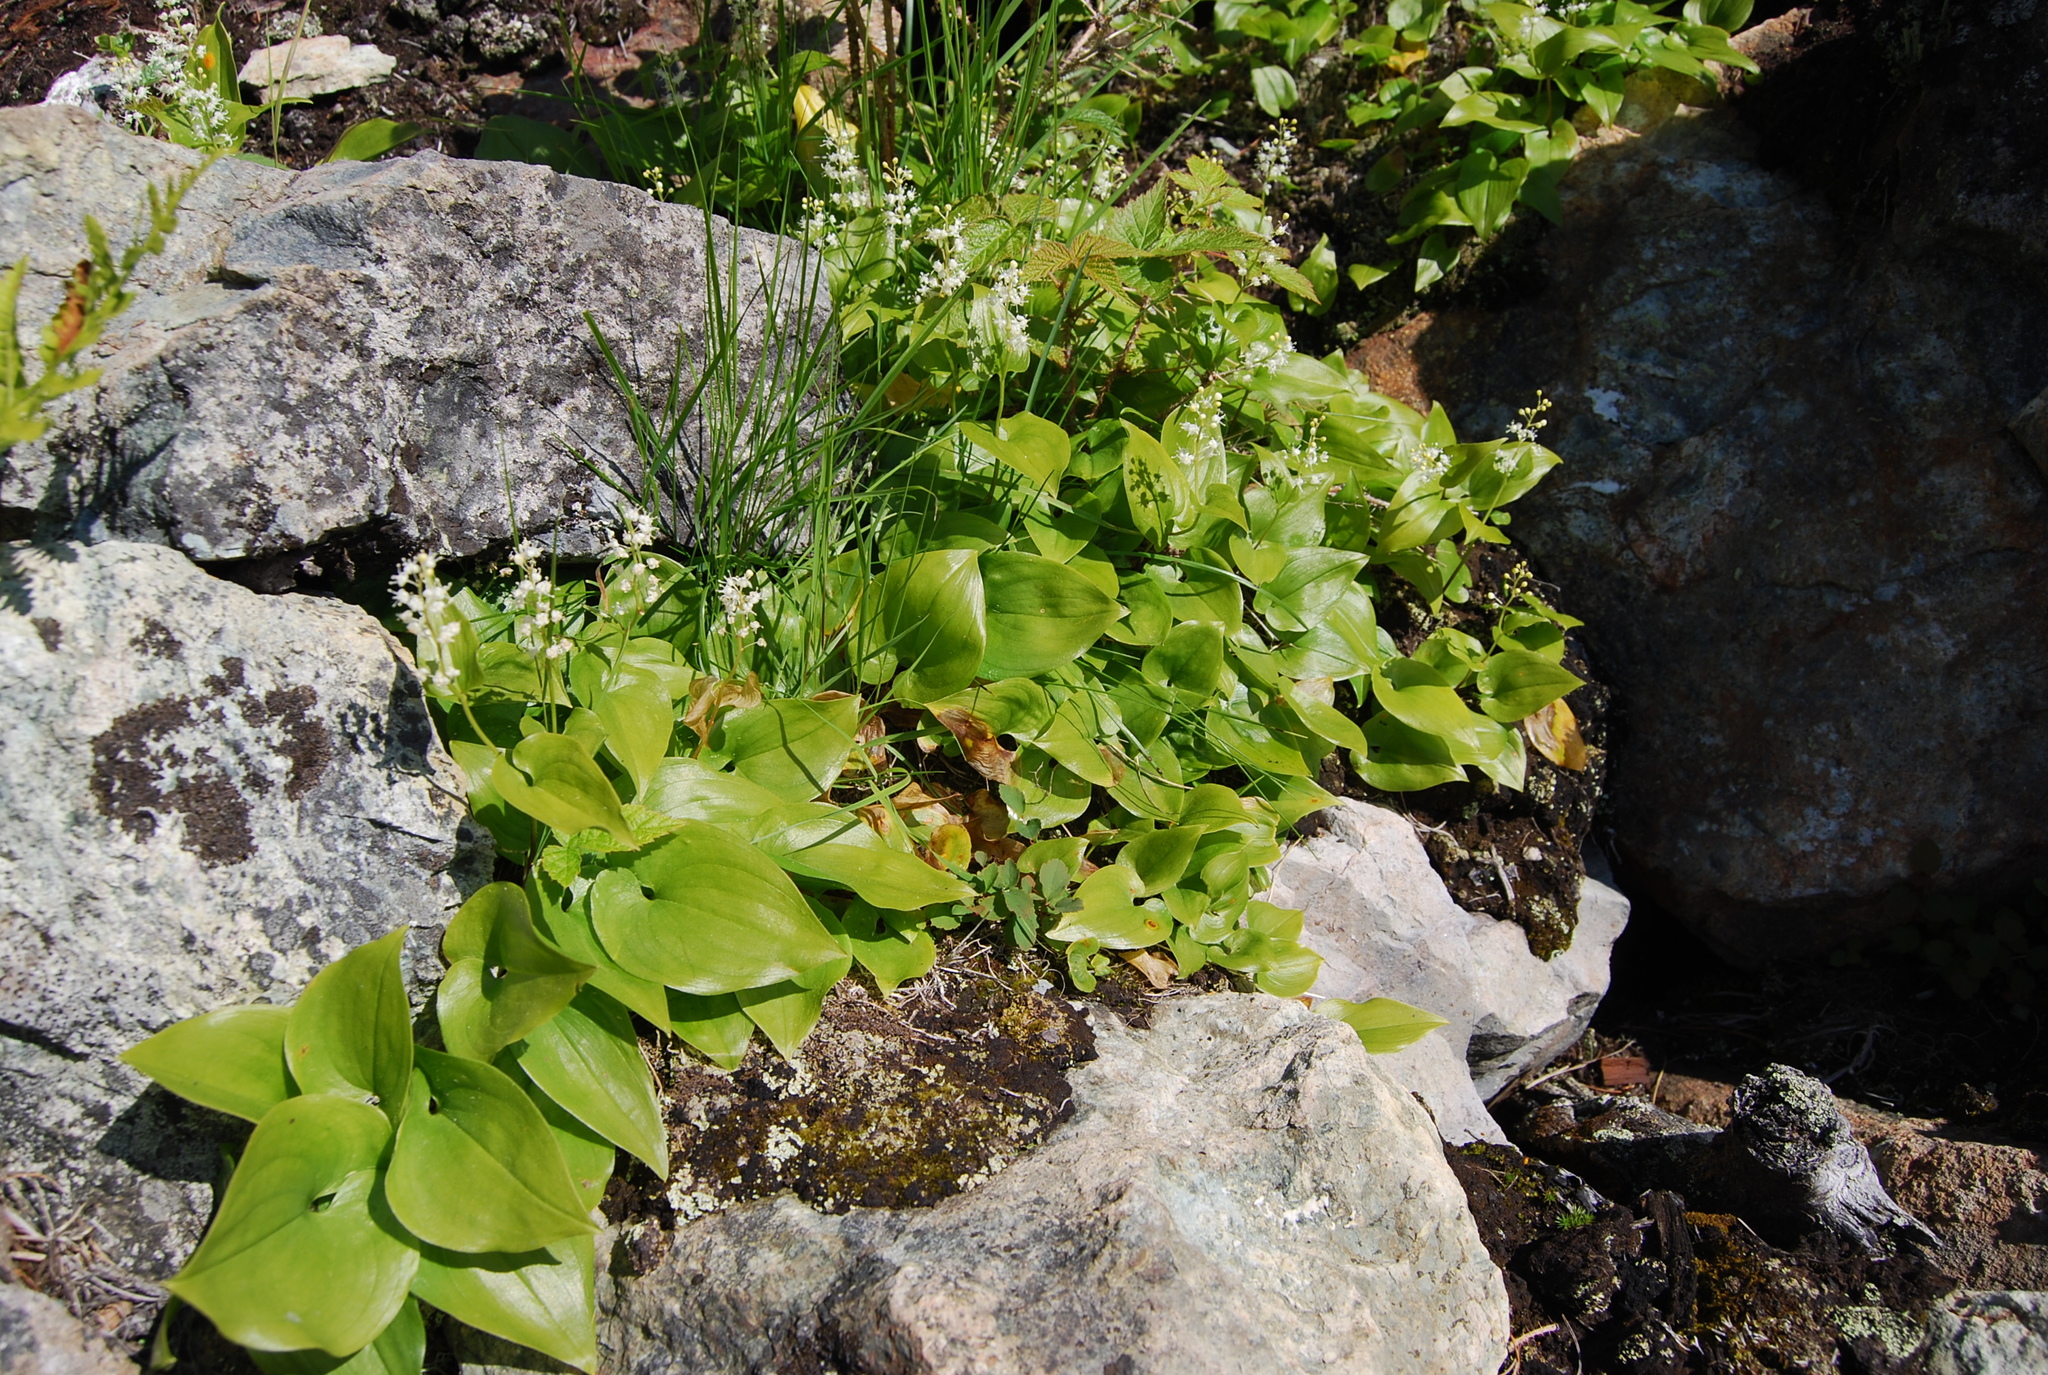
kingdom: Plantae
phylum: Tracheophyta
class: Liliopsida
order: Asparagales
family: Asparagaceae
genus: Maianthemum
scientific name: Maianthemum dilatatum
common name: False lily-of-the-valley
